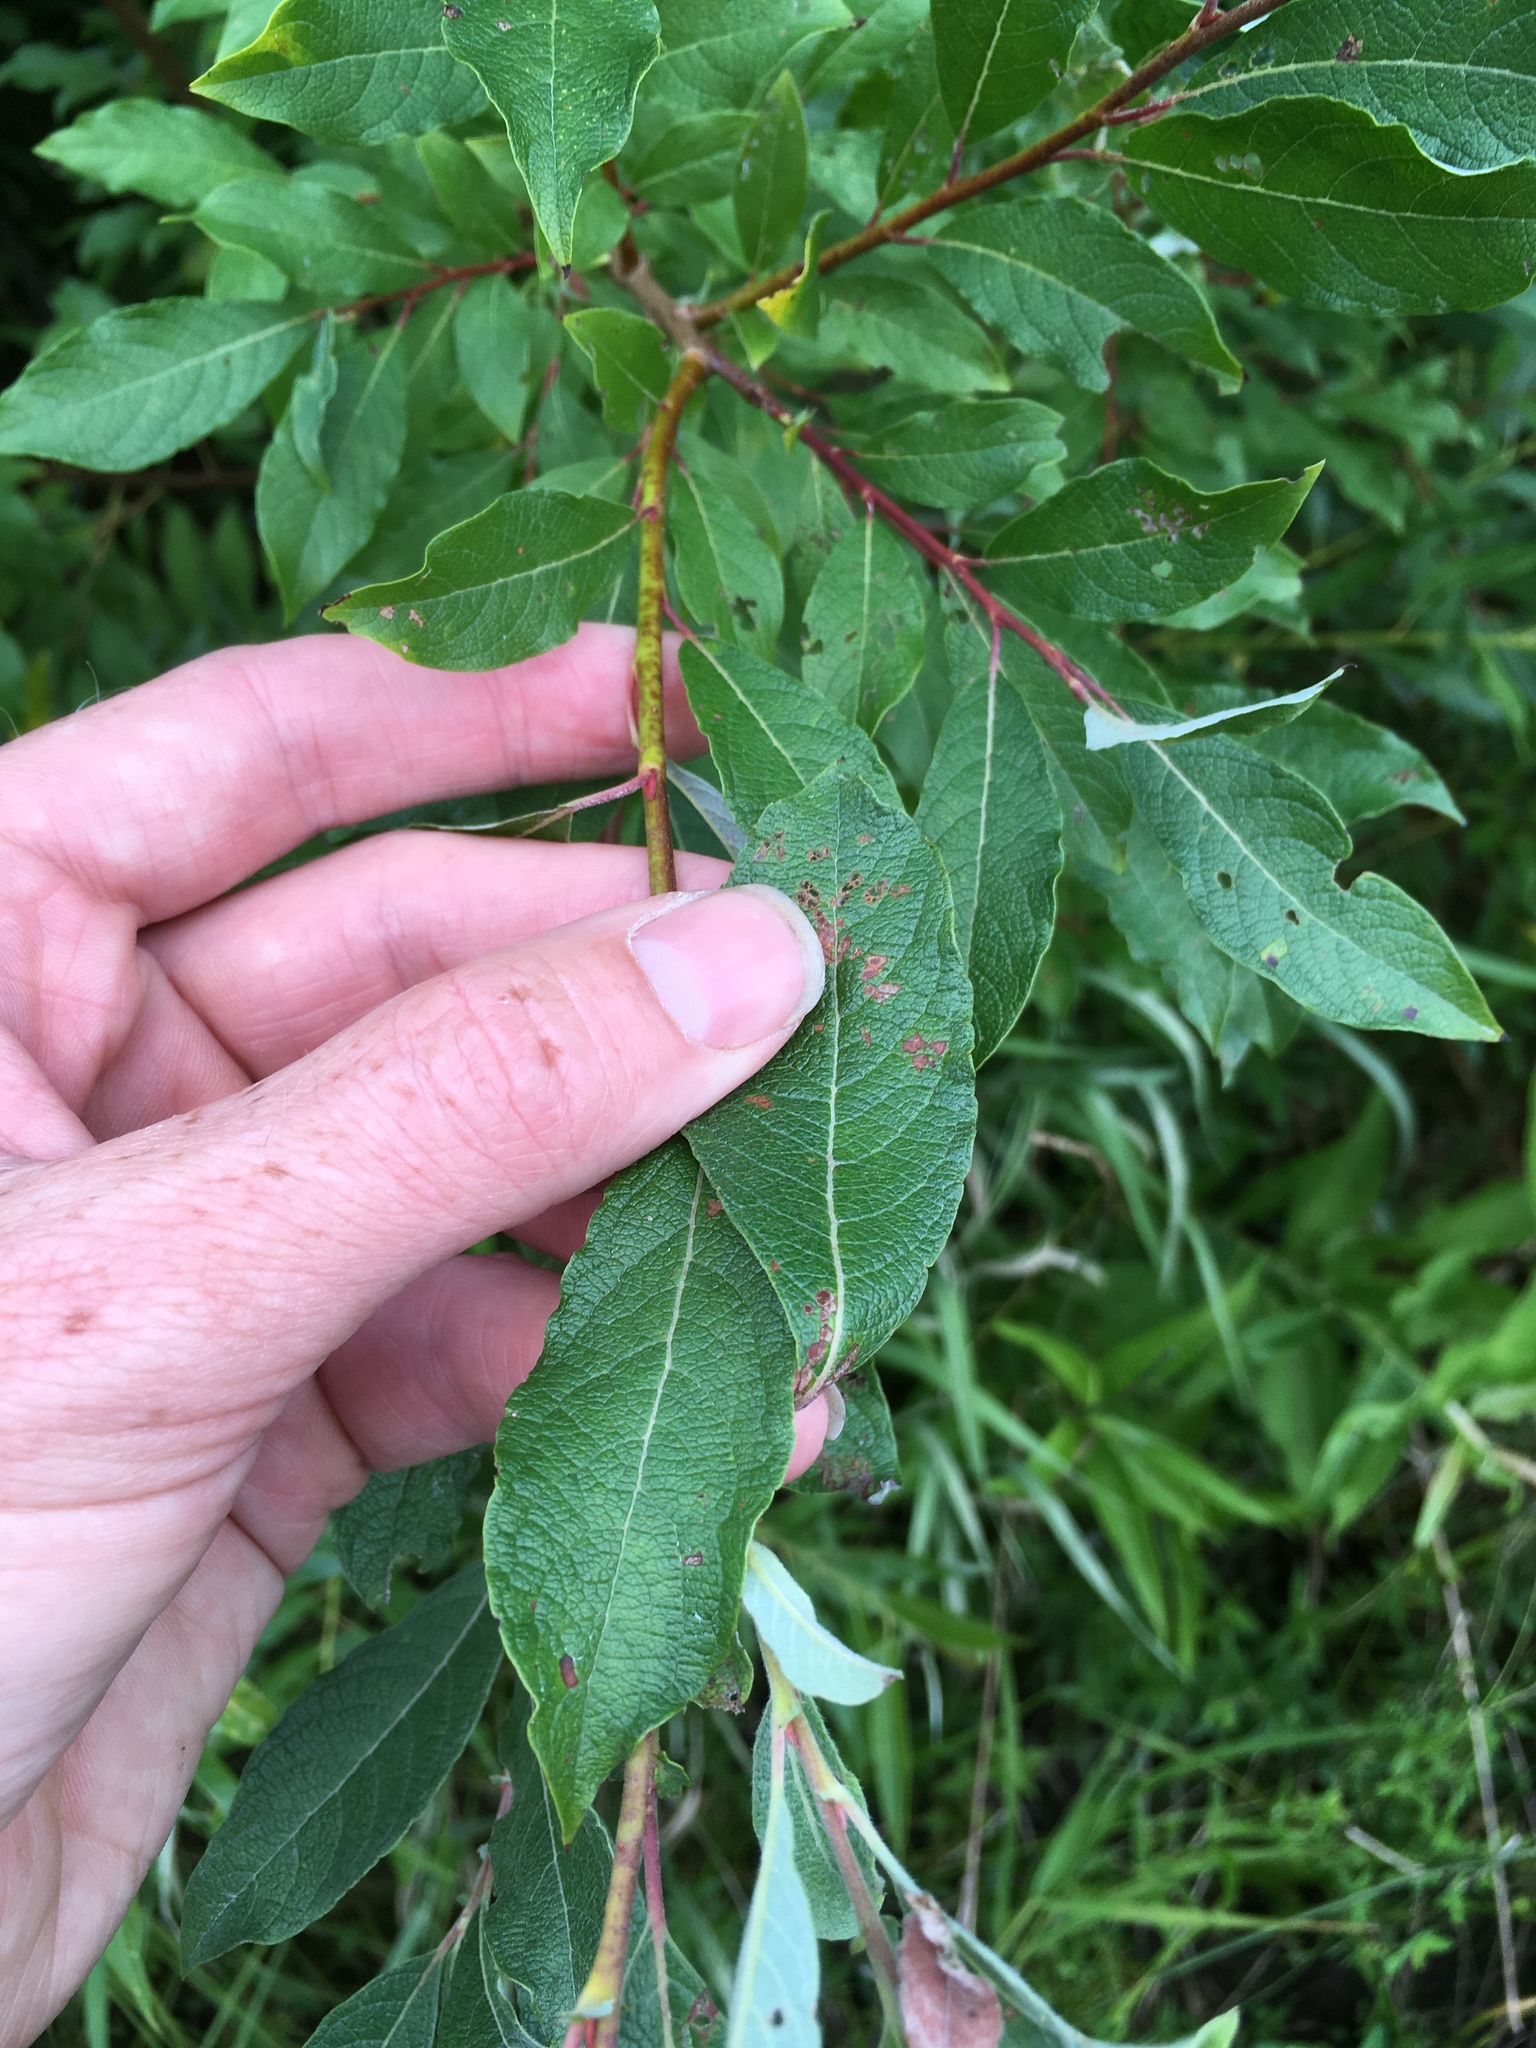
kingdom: Plantae
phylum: Tracheophyta
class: Magnoliopsida
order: Malpighiales
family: Salicaceae
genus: Salix
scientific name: Salix bebbiana
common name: Bebb's willow
